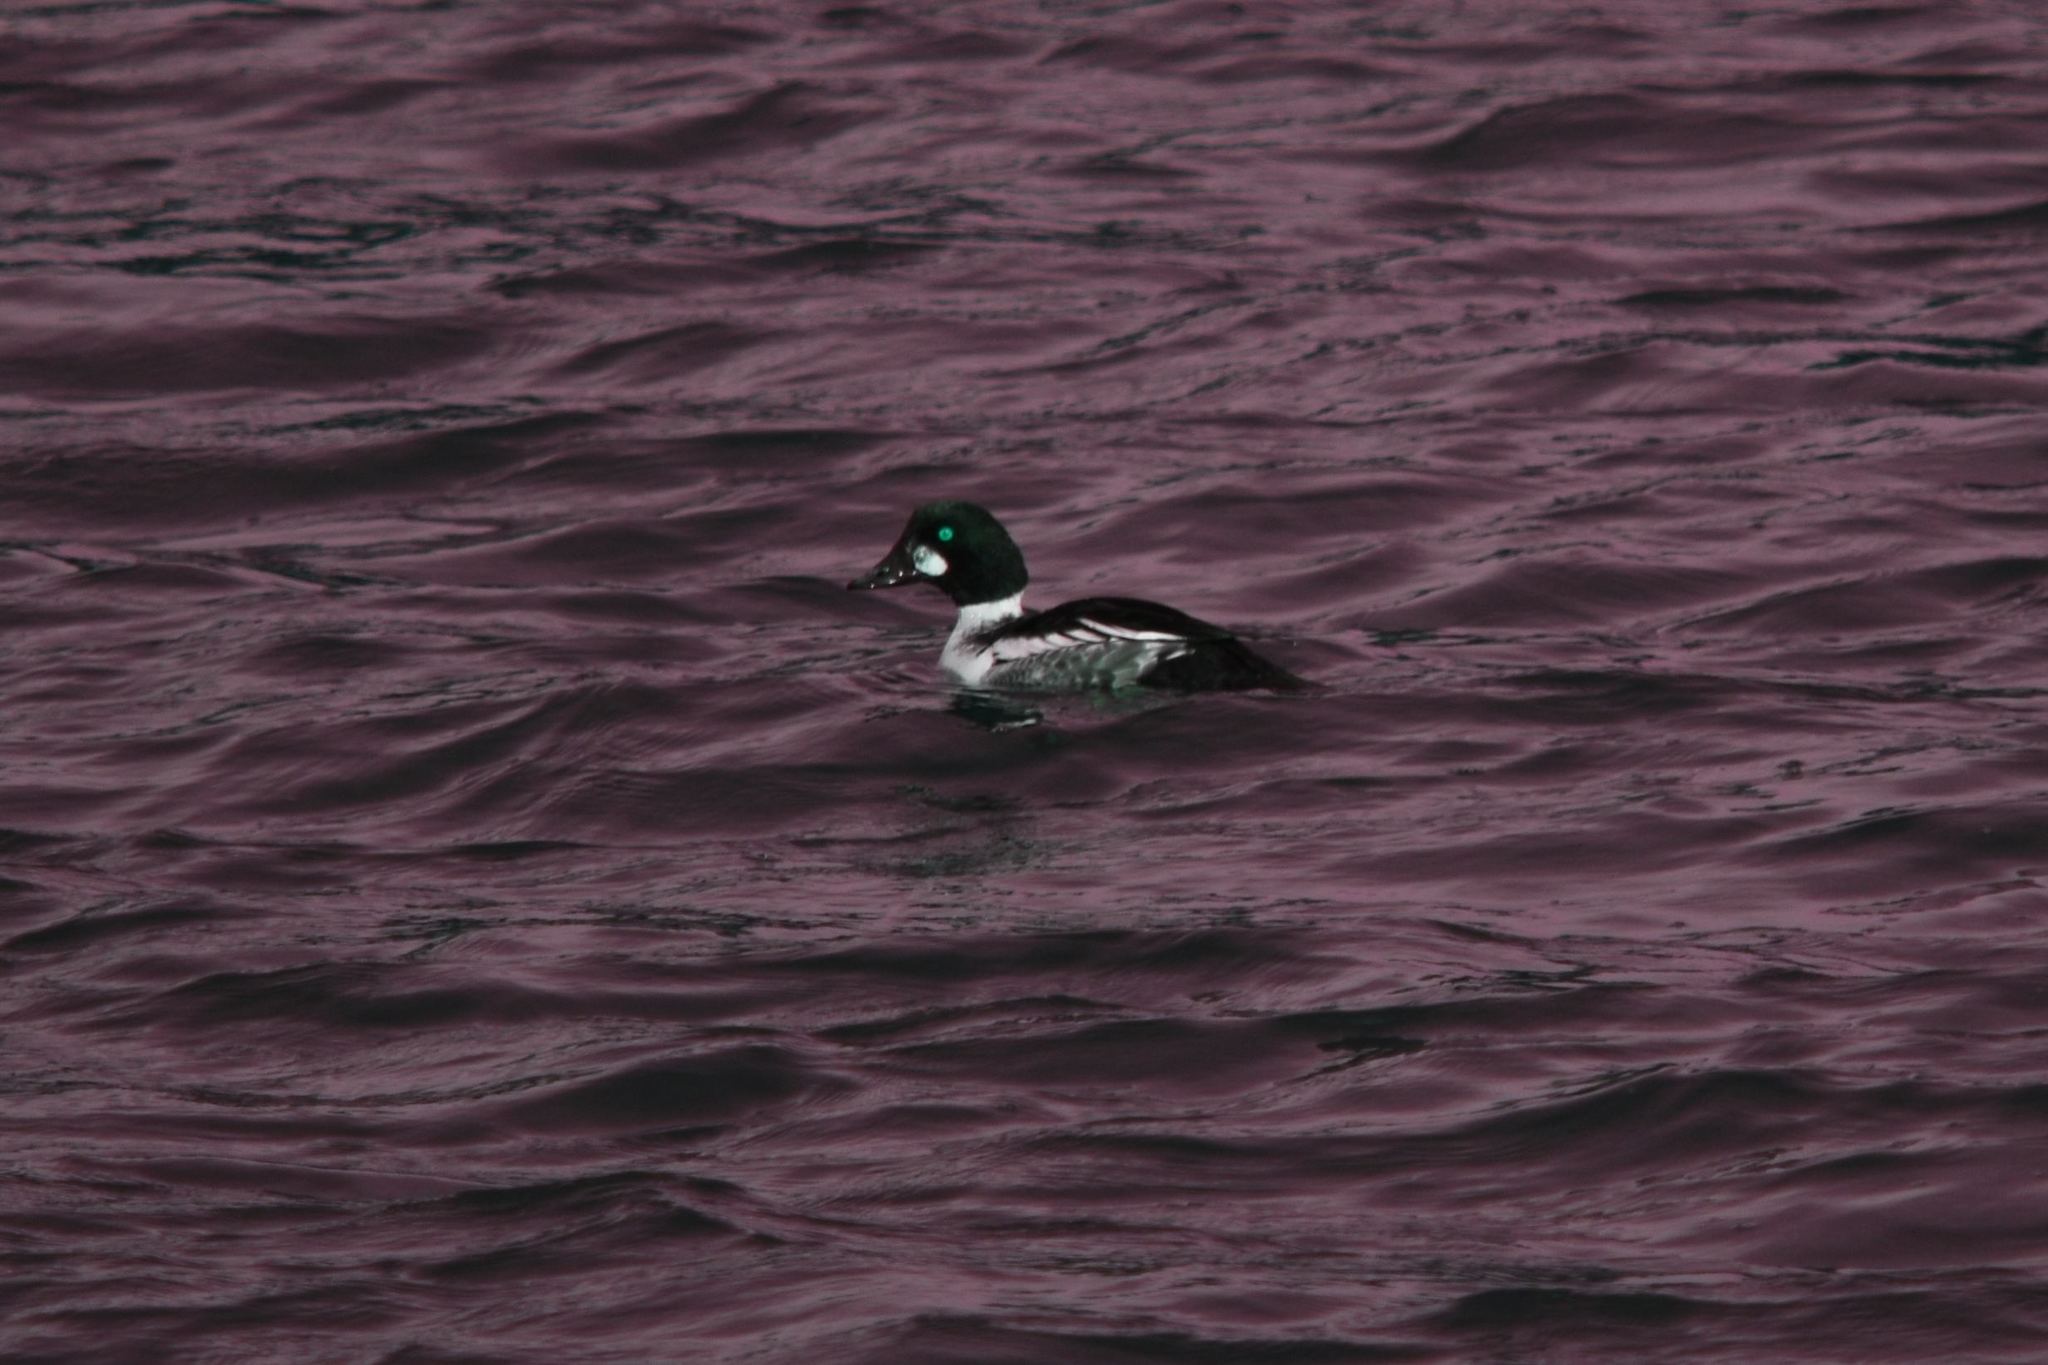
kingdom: Animalia
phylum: Chordata
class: Aves
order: Anseriformes
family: Anatidae
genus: Bucephala
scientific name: Bucephala clangula
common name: Common goldeneye
